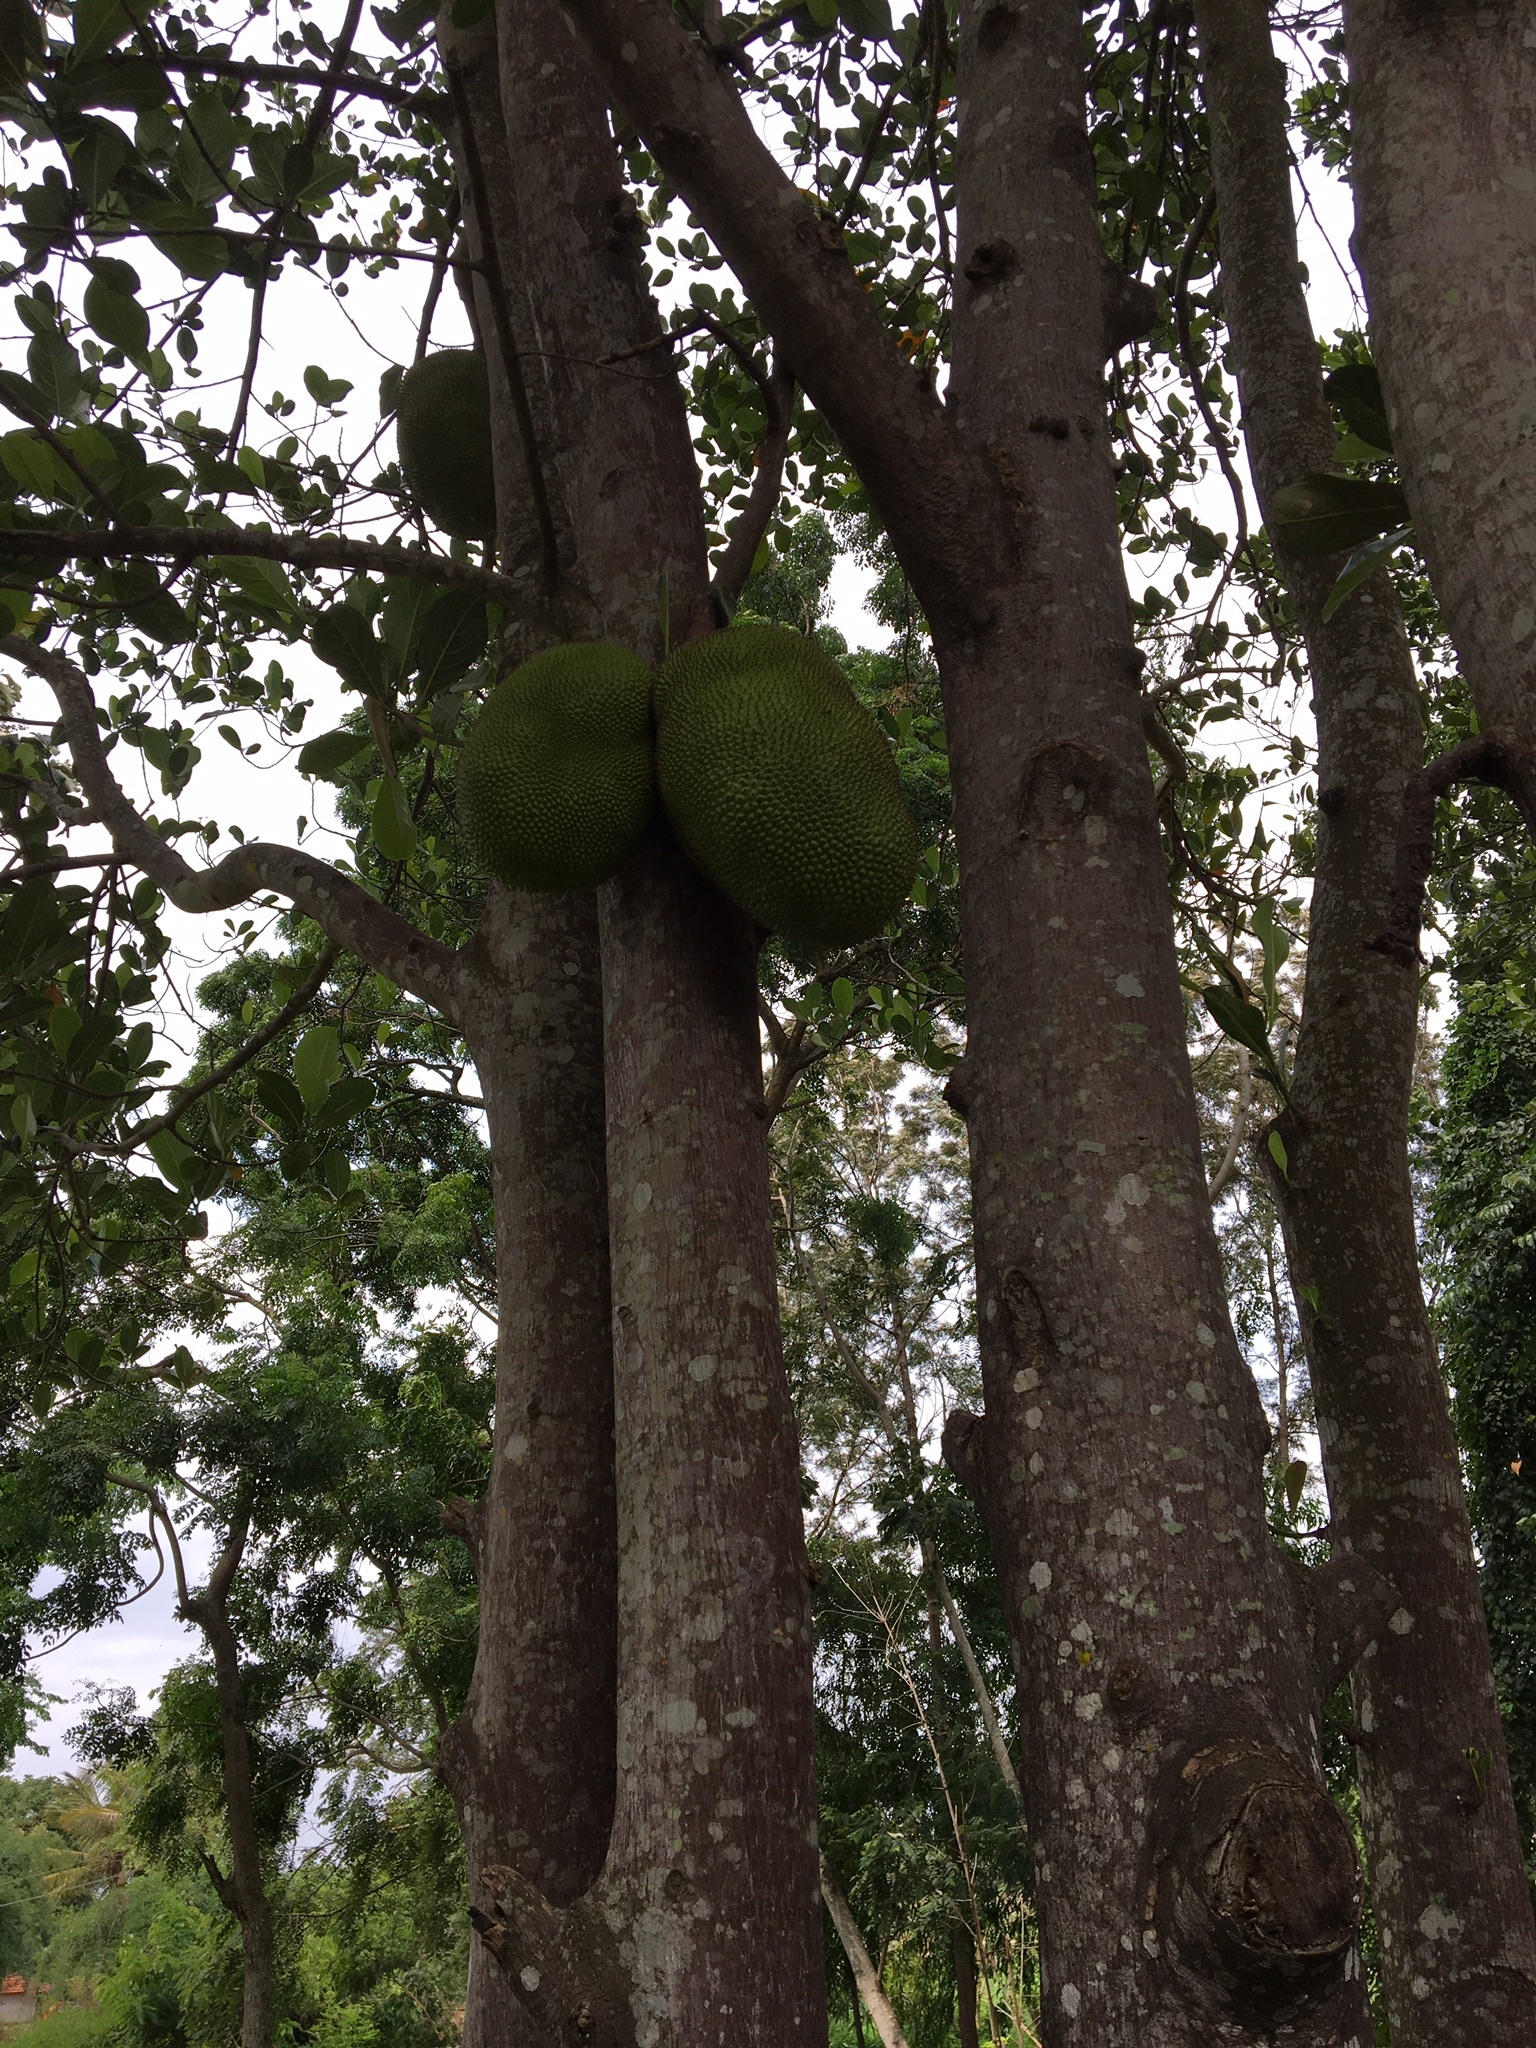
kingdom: Plantae
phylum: Tracheophyta
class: Magnoliopsida
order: Rosales
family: Moraceae
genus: Artocarpus
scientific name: Artocarpus heterophyllus
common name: Jackfruit
